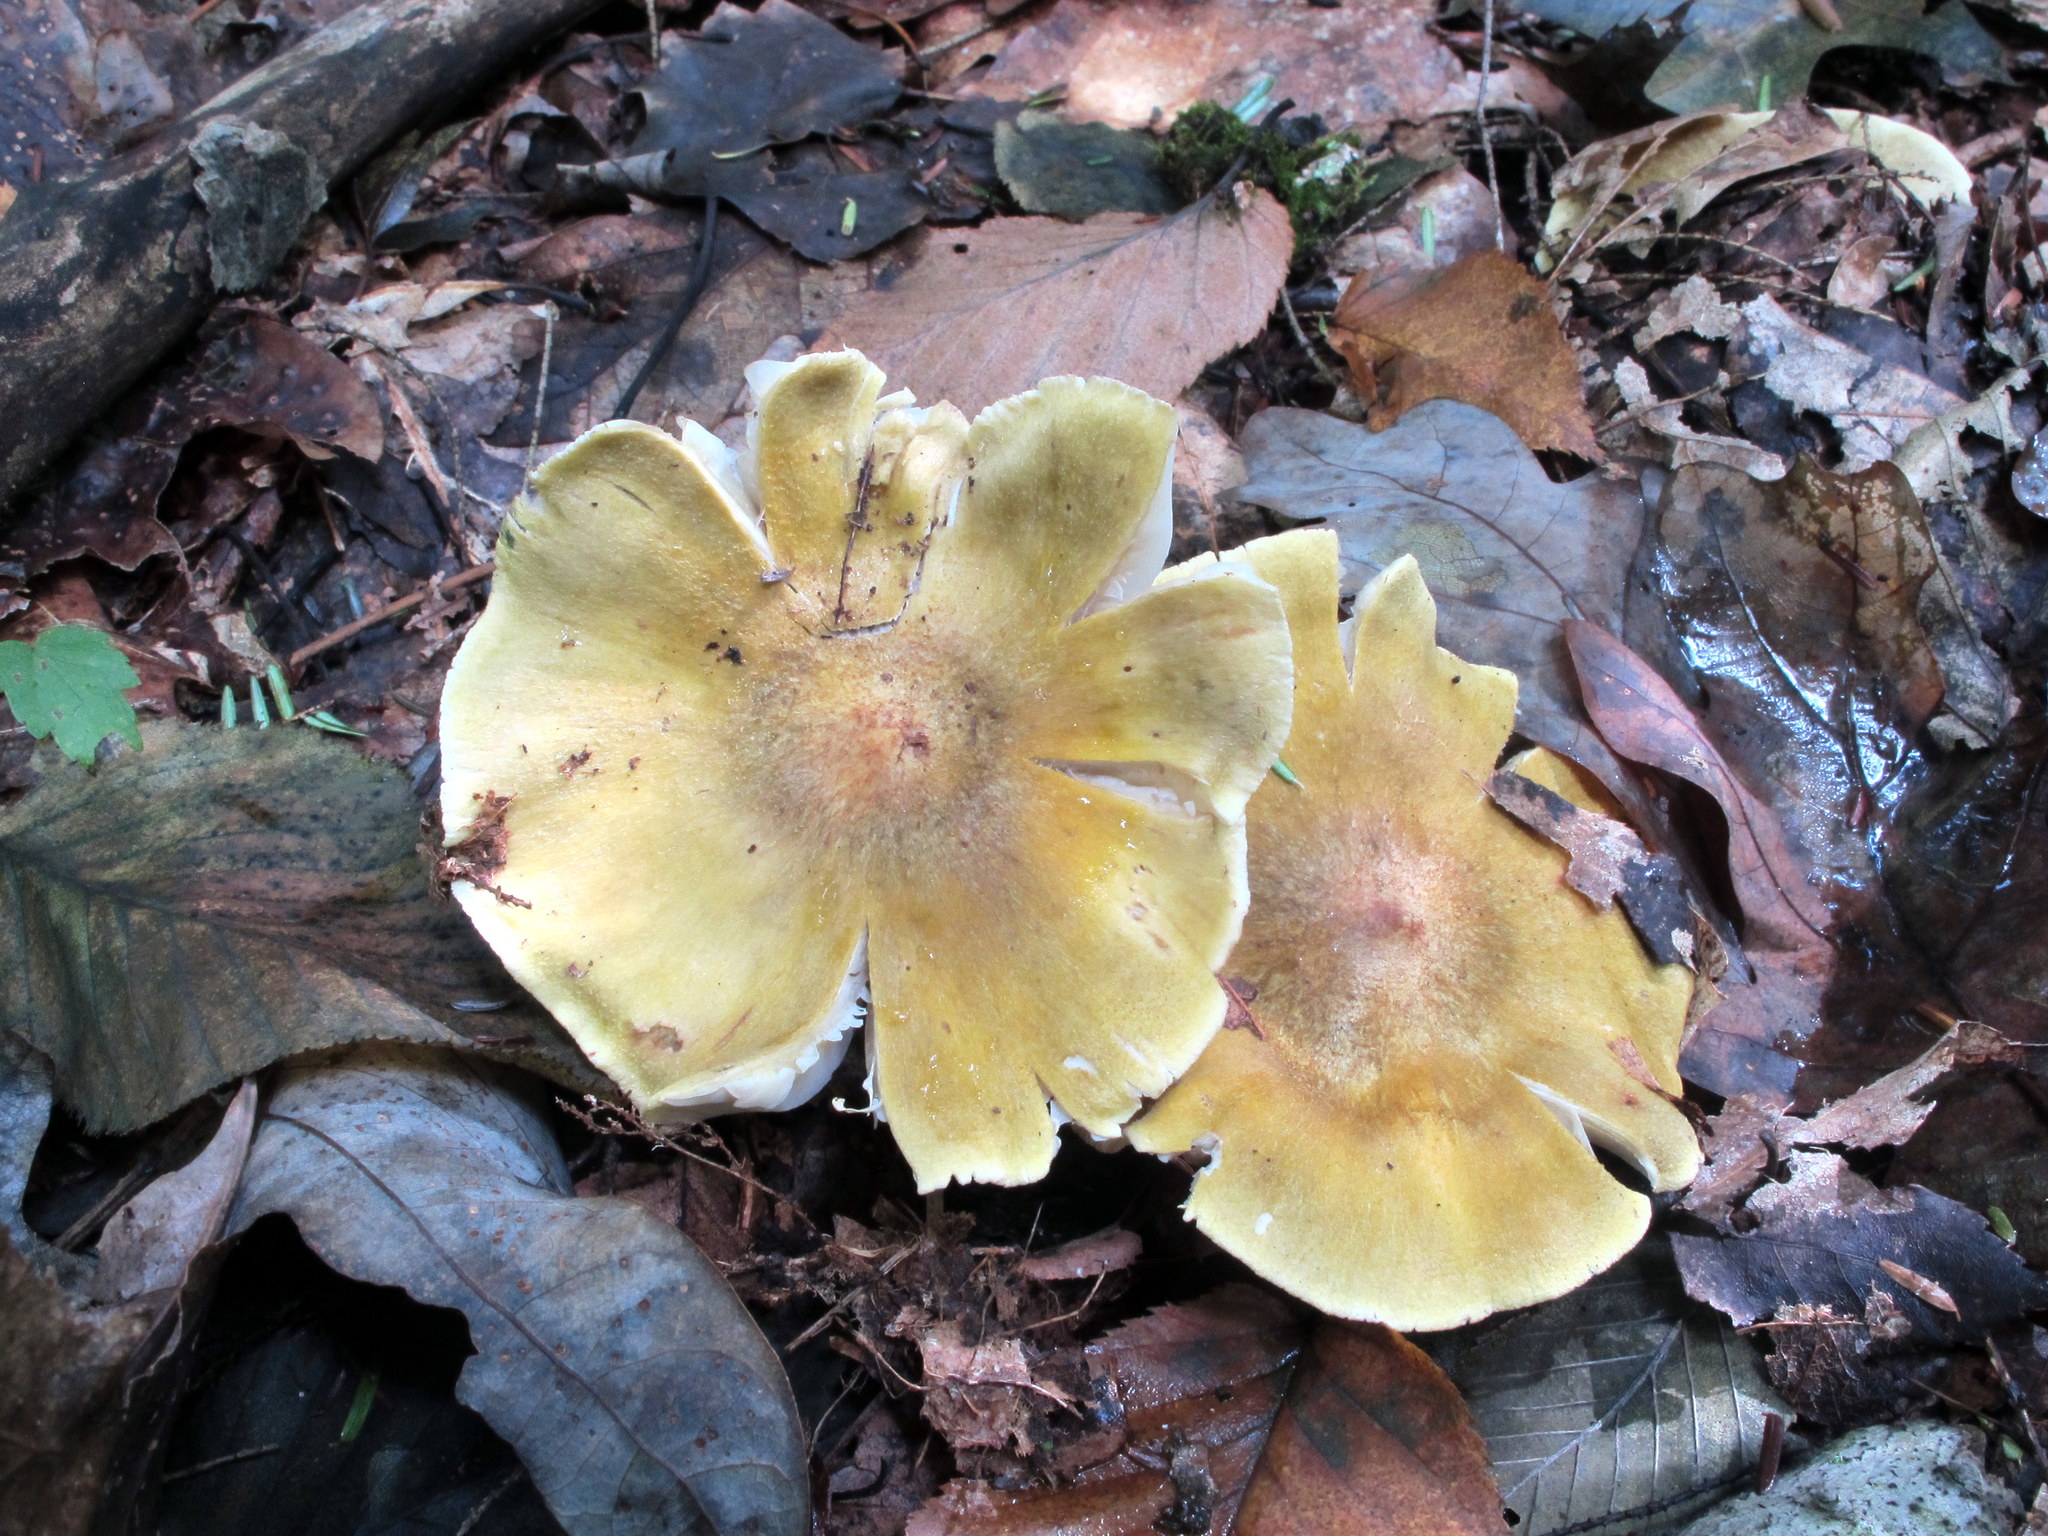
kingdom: Fungi
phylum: Basidiomycota
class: Agaricomycetes
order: Agaricales
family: Tricholomataceae
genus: Tricholoma
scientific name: Tricholoma sejunctum
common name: Deceiving knight
